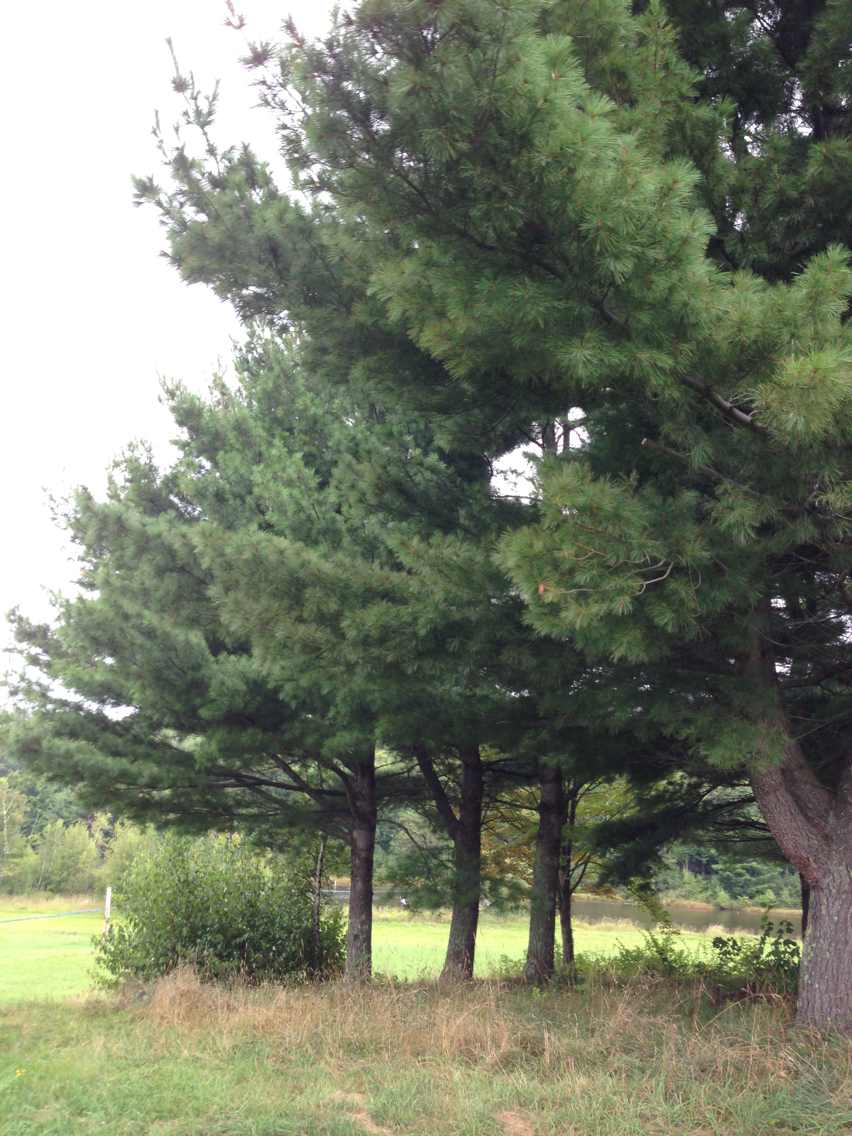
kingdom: Plantae
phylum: Tracheophyta
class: Pinopsida
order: Pinales
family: Pinaceae
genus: Pinus
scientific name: Pinus strobus
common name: Weymouth pine
